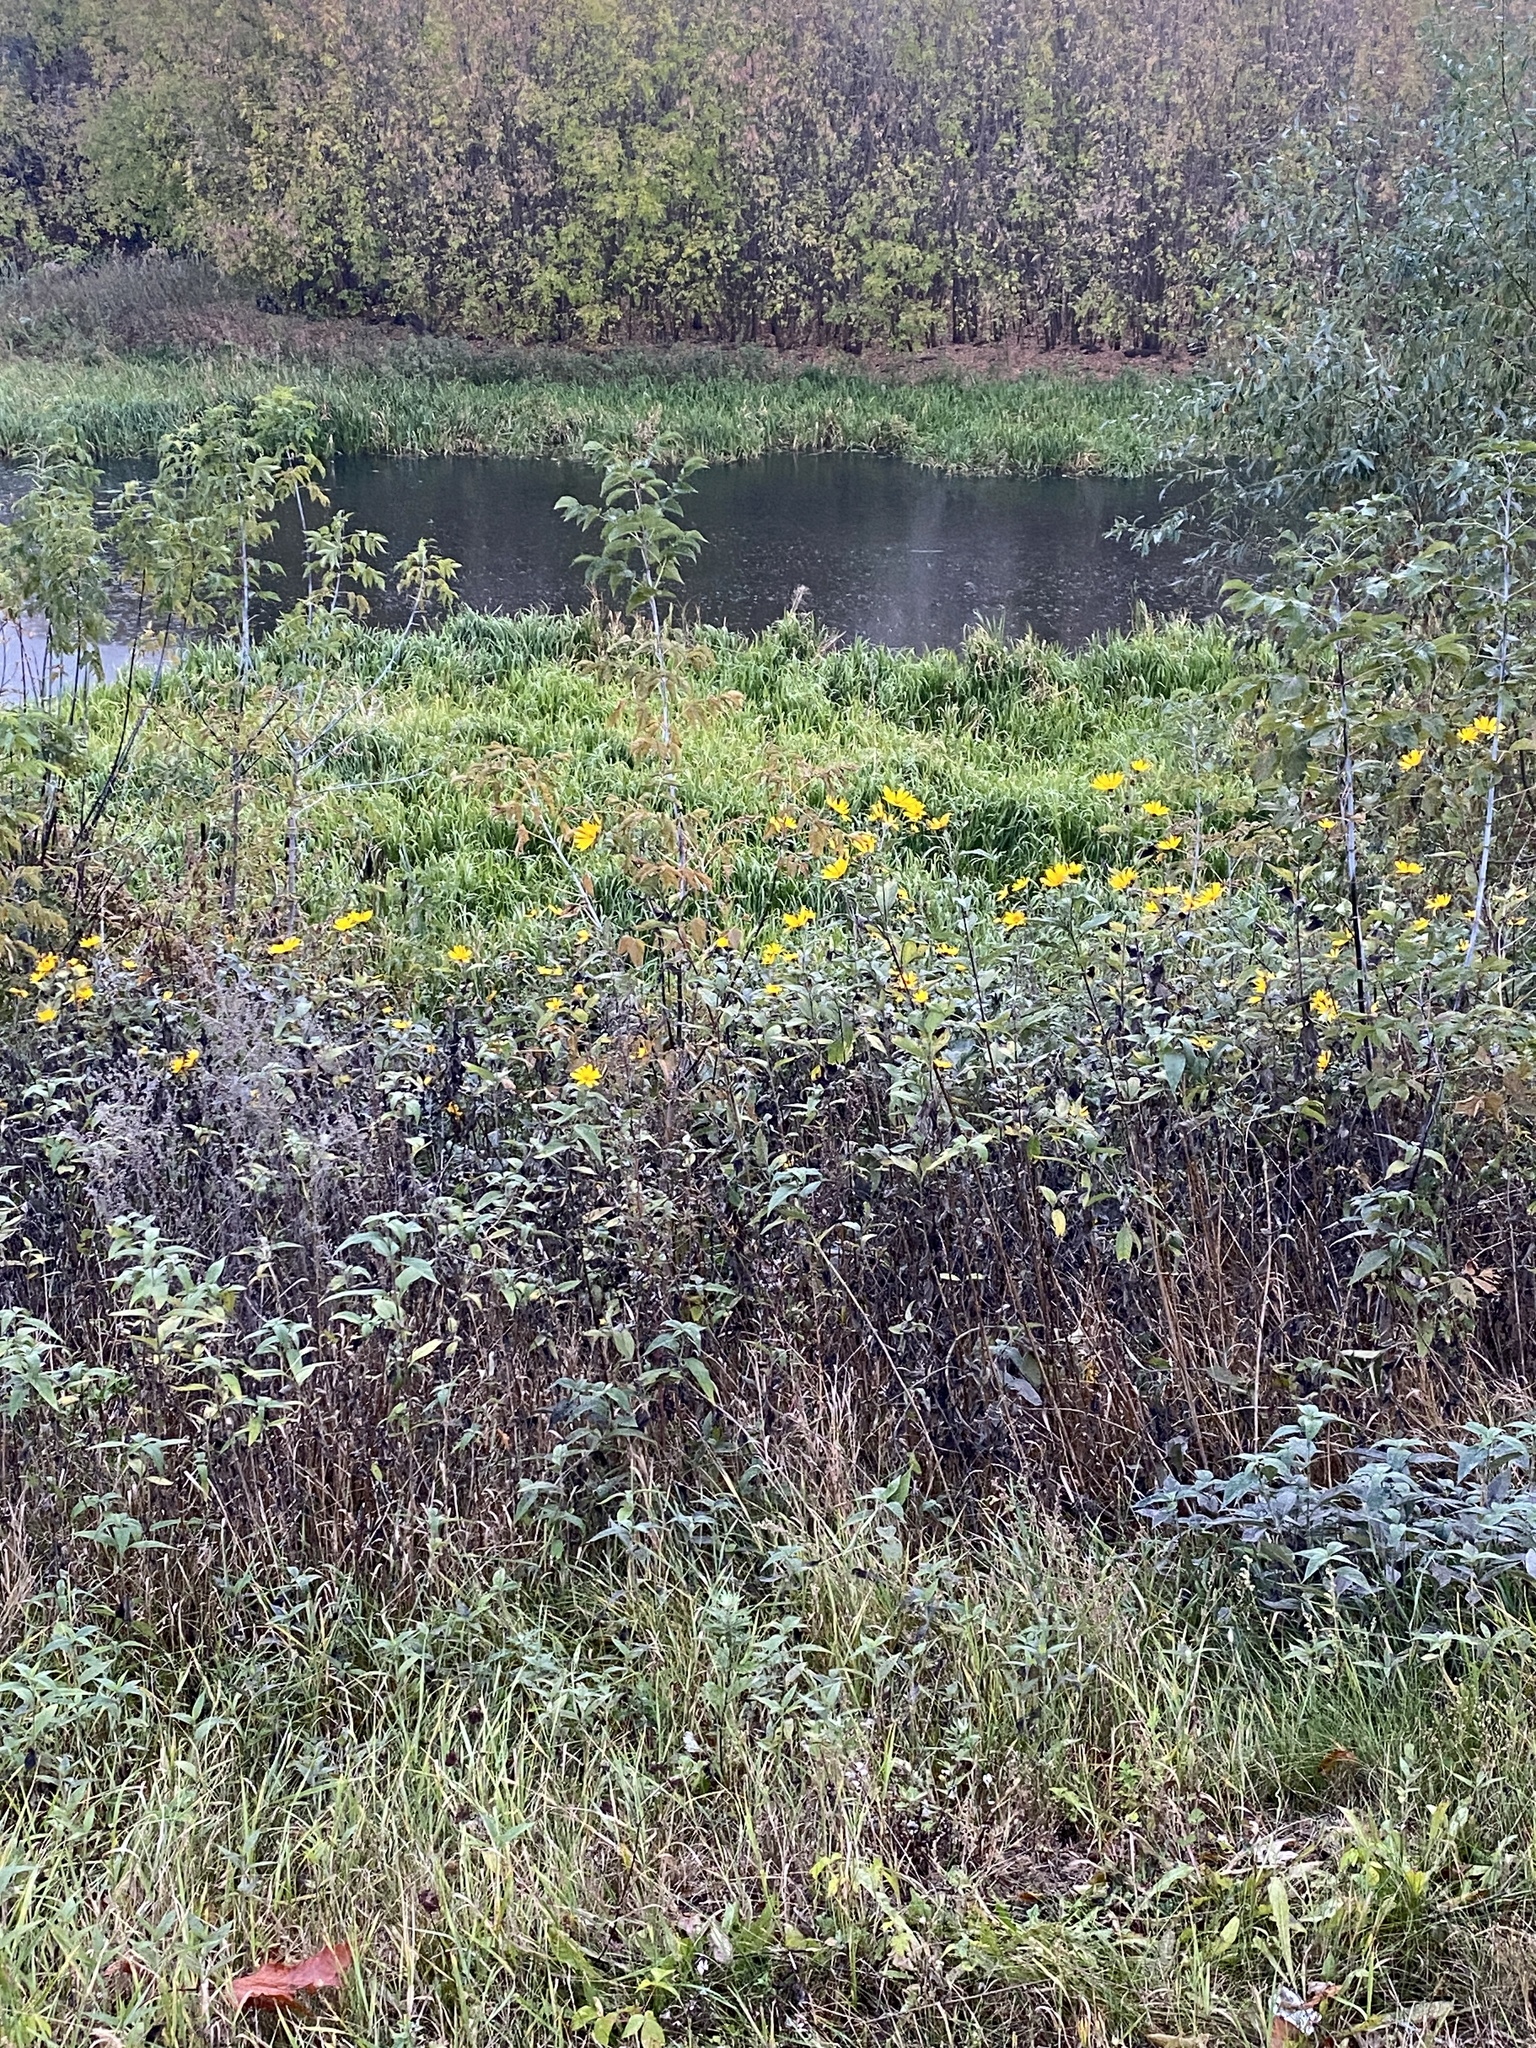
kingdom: Plantae
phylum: Tracheophyta
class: Magnoliopsida
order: Asterales
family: Asteraceae
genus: Helianthus
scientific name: Helianthus tuberosus
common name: Jerusalem artichoke
